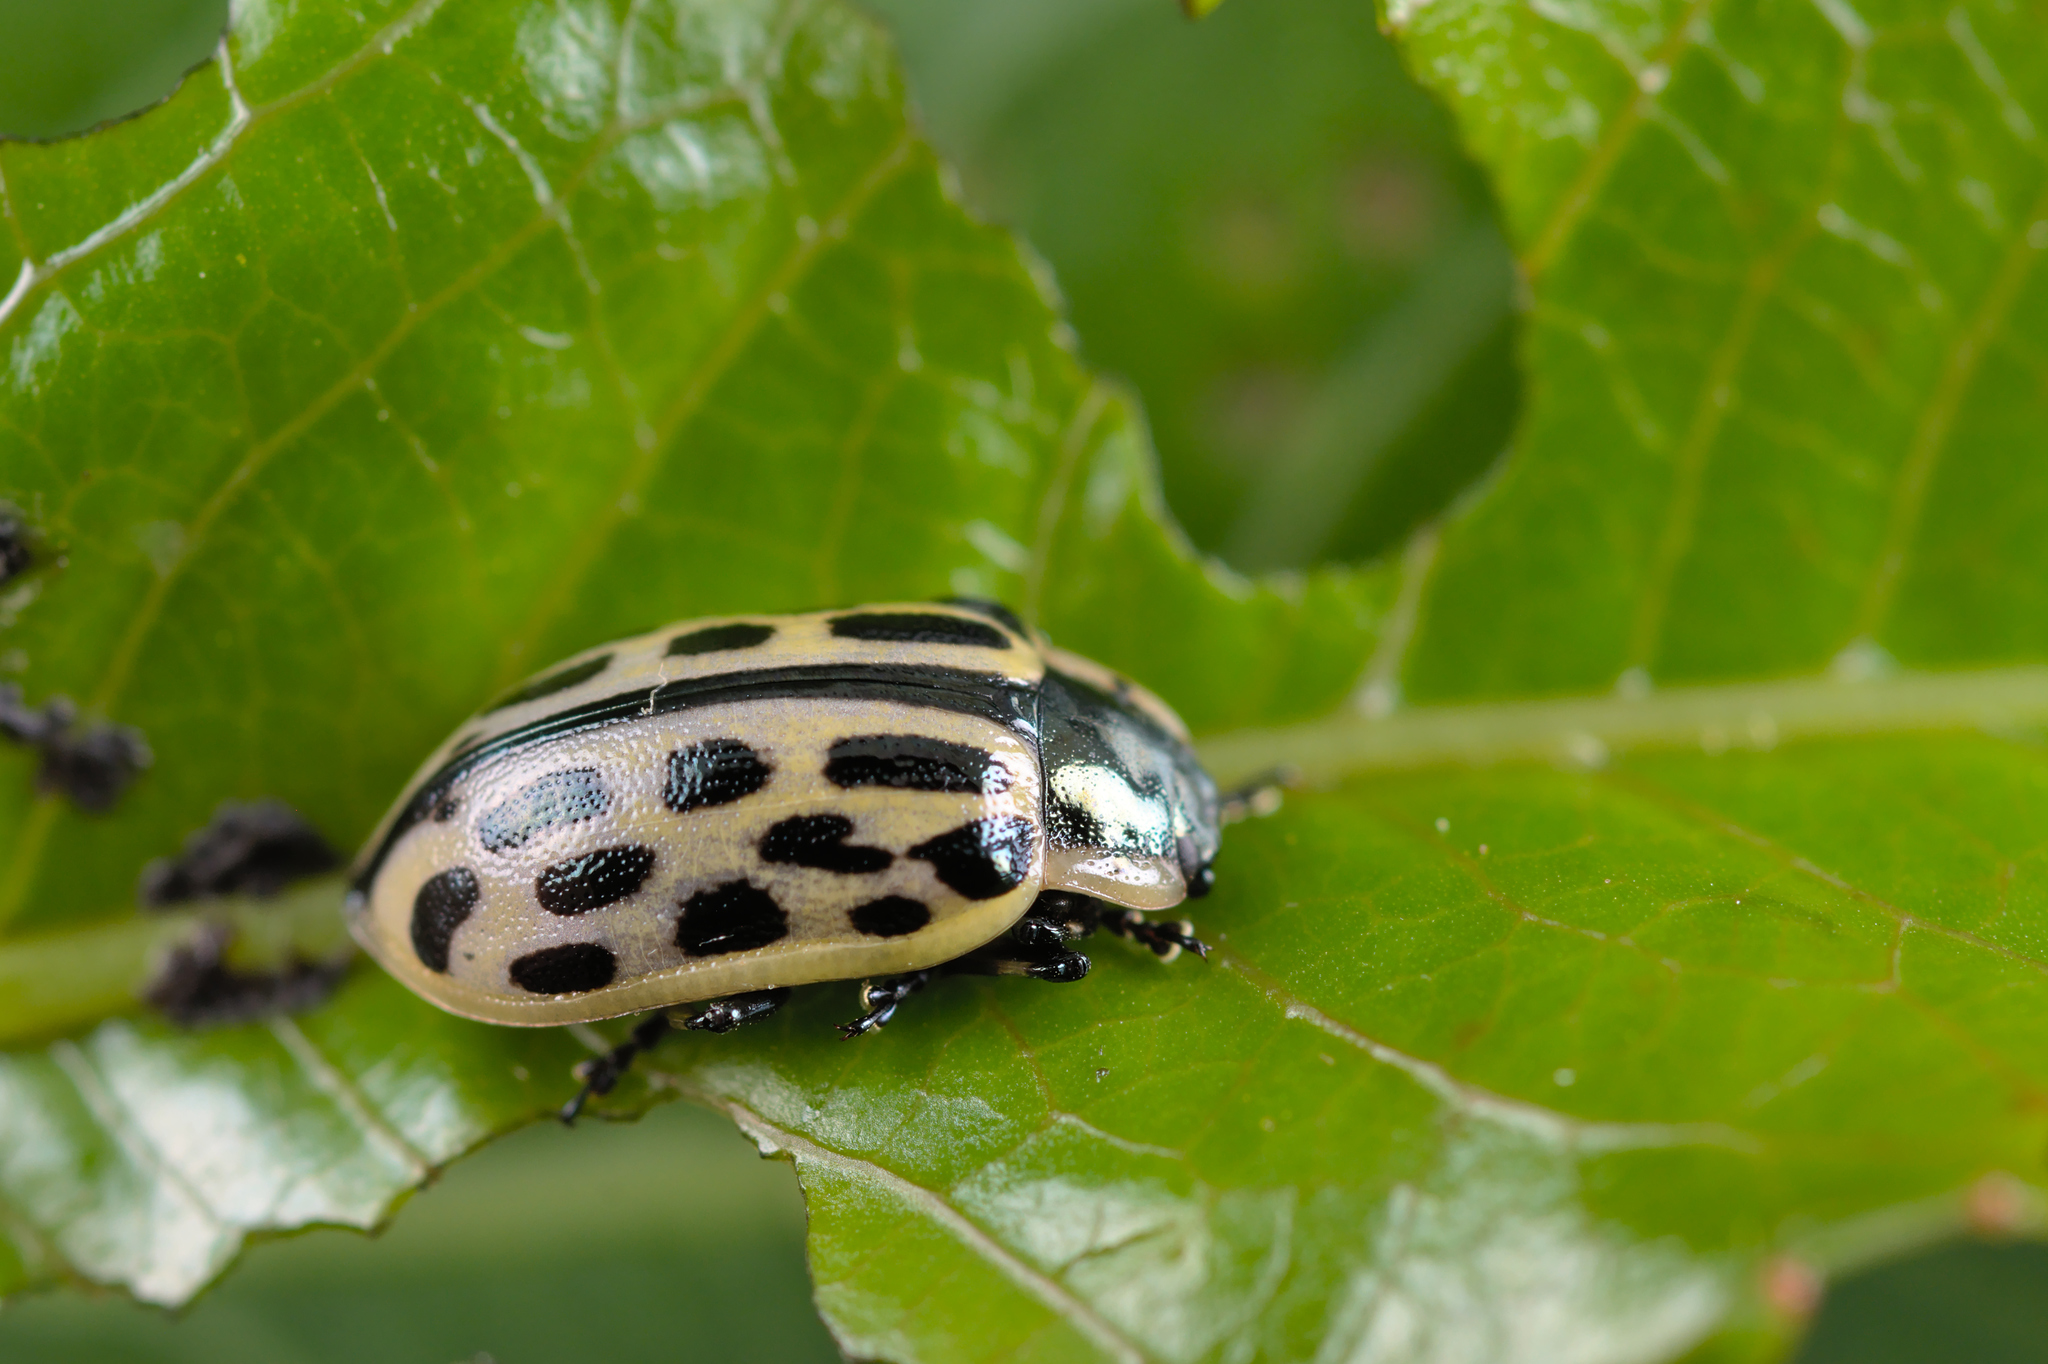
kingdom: Animalia
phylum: Arthropoda
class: Insecta
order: Coleoptera
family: Chrysomelidae
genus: Chrysomela
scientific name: Chrysomela vigintipunctata
